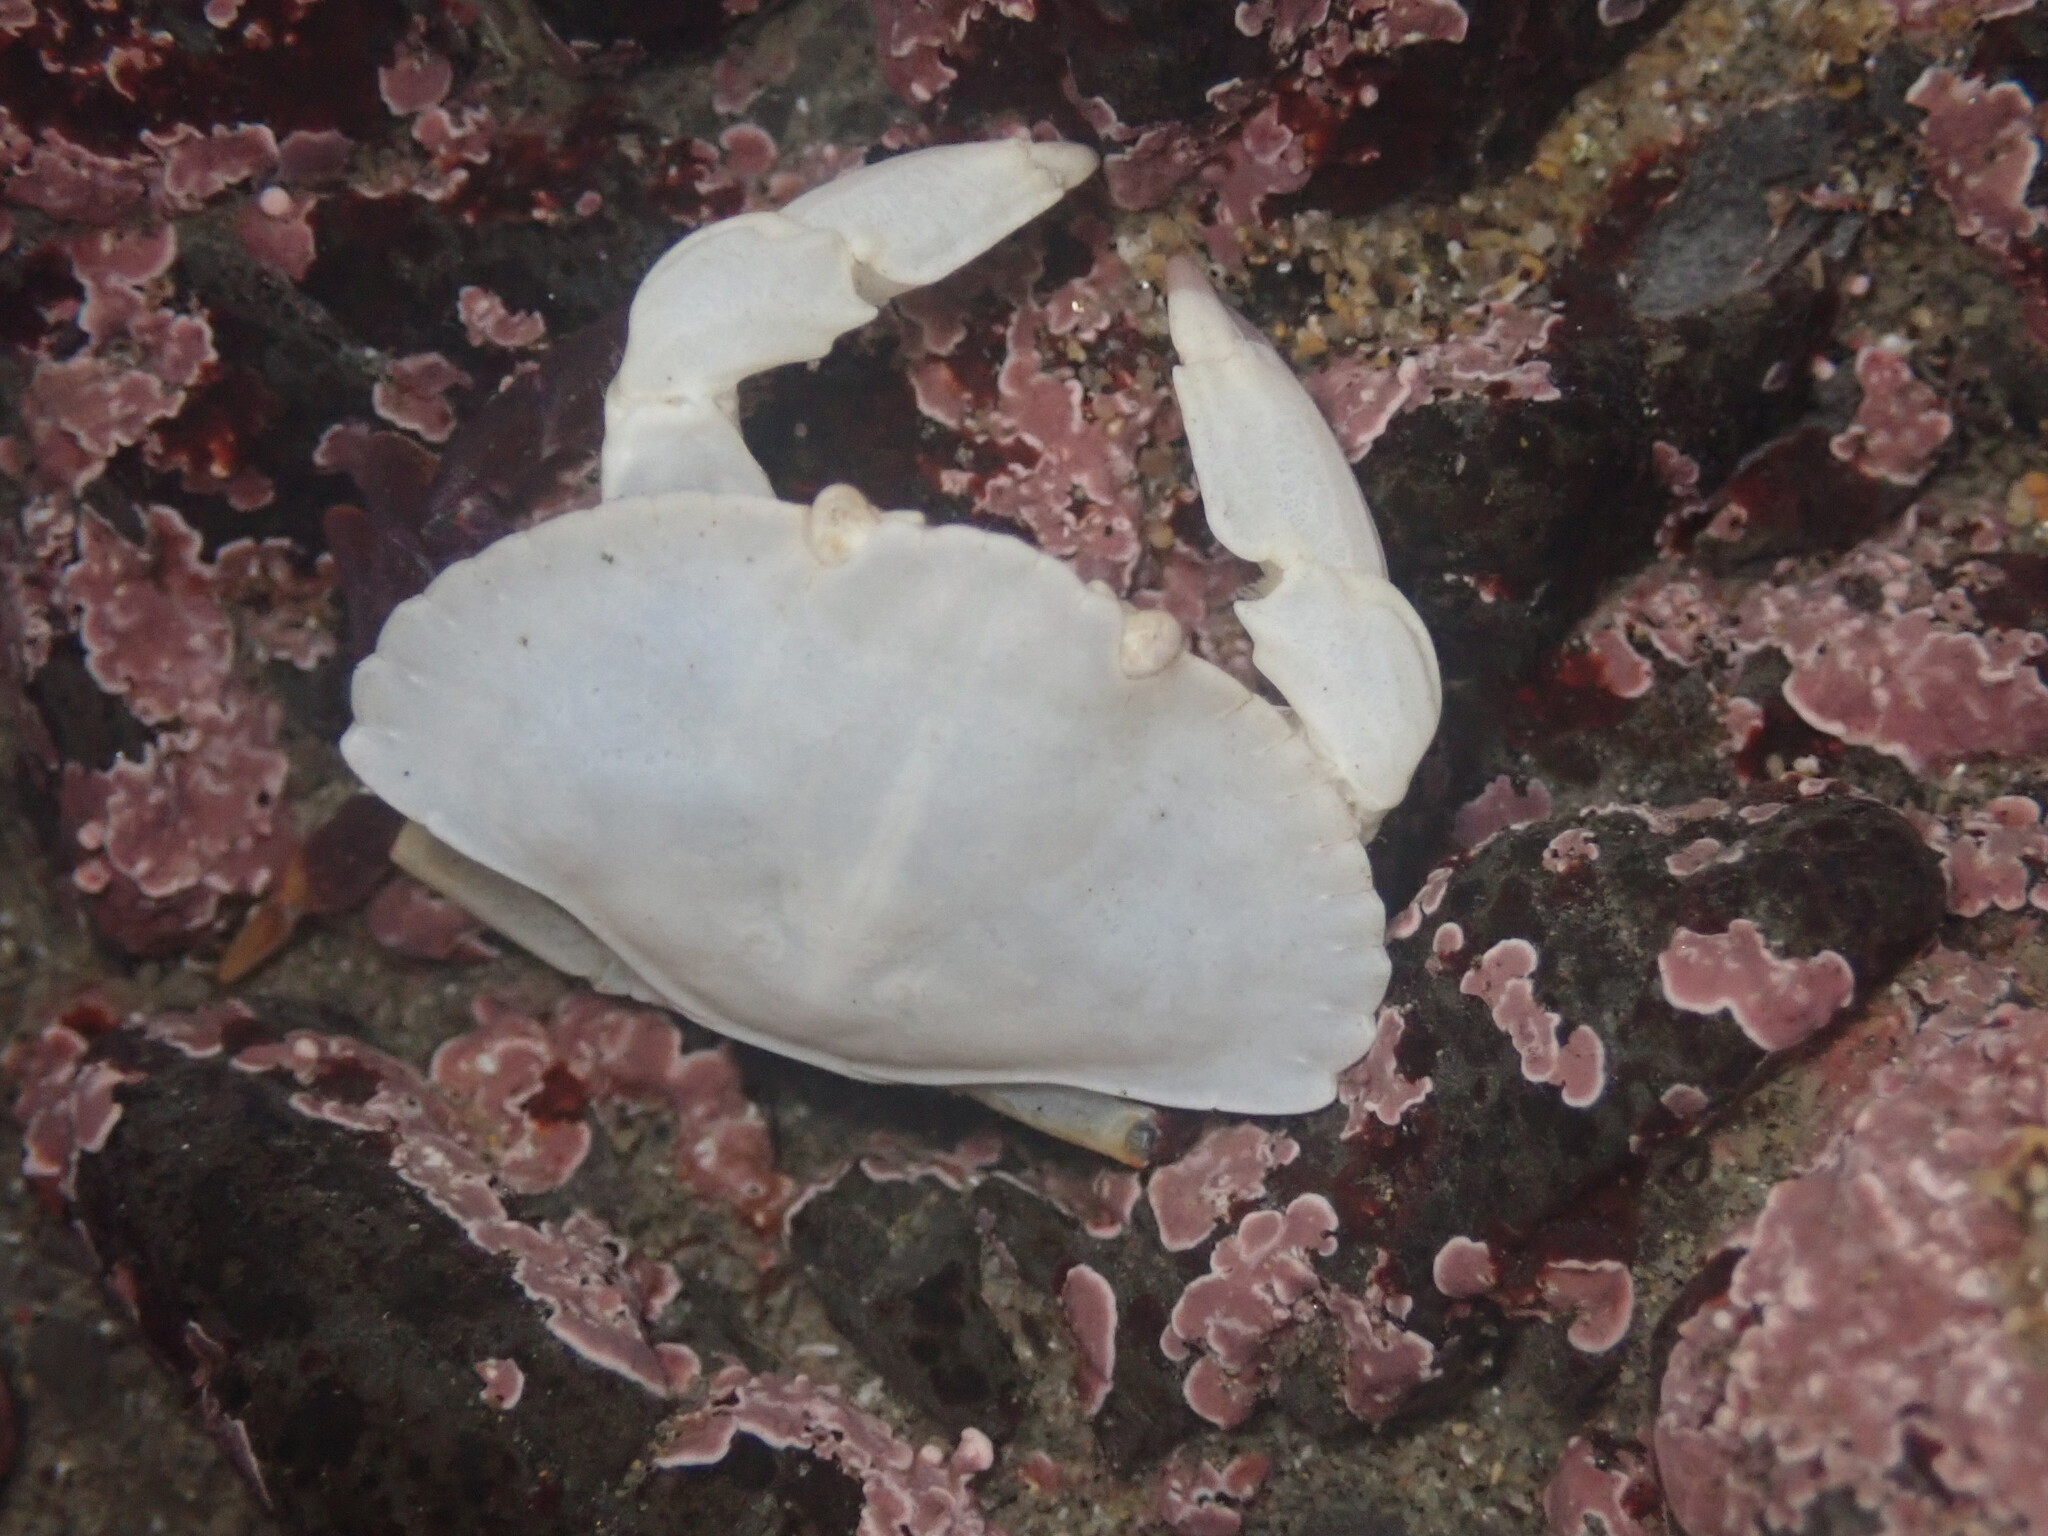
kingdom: Animalia
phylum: Arthropoda
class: Malacostraca
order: Decapoda
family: Cancridae
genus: Cancer
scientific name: Cancer productus
